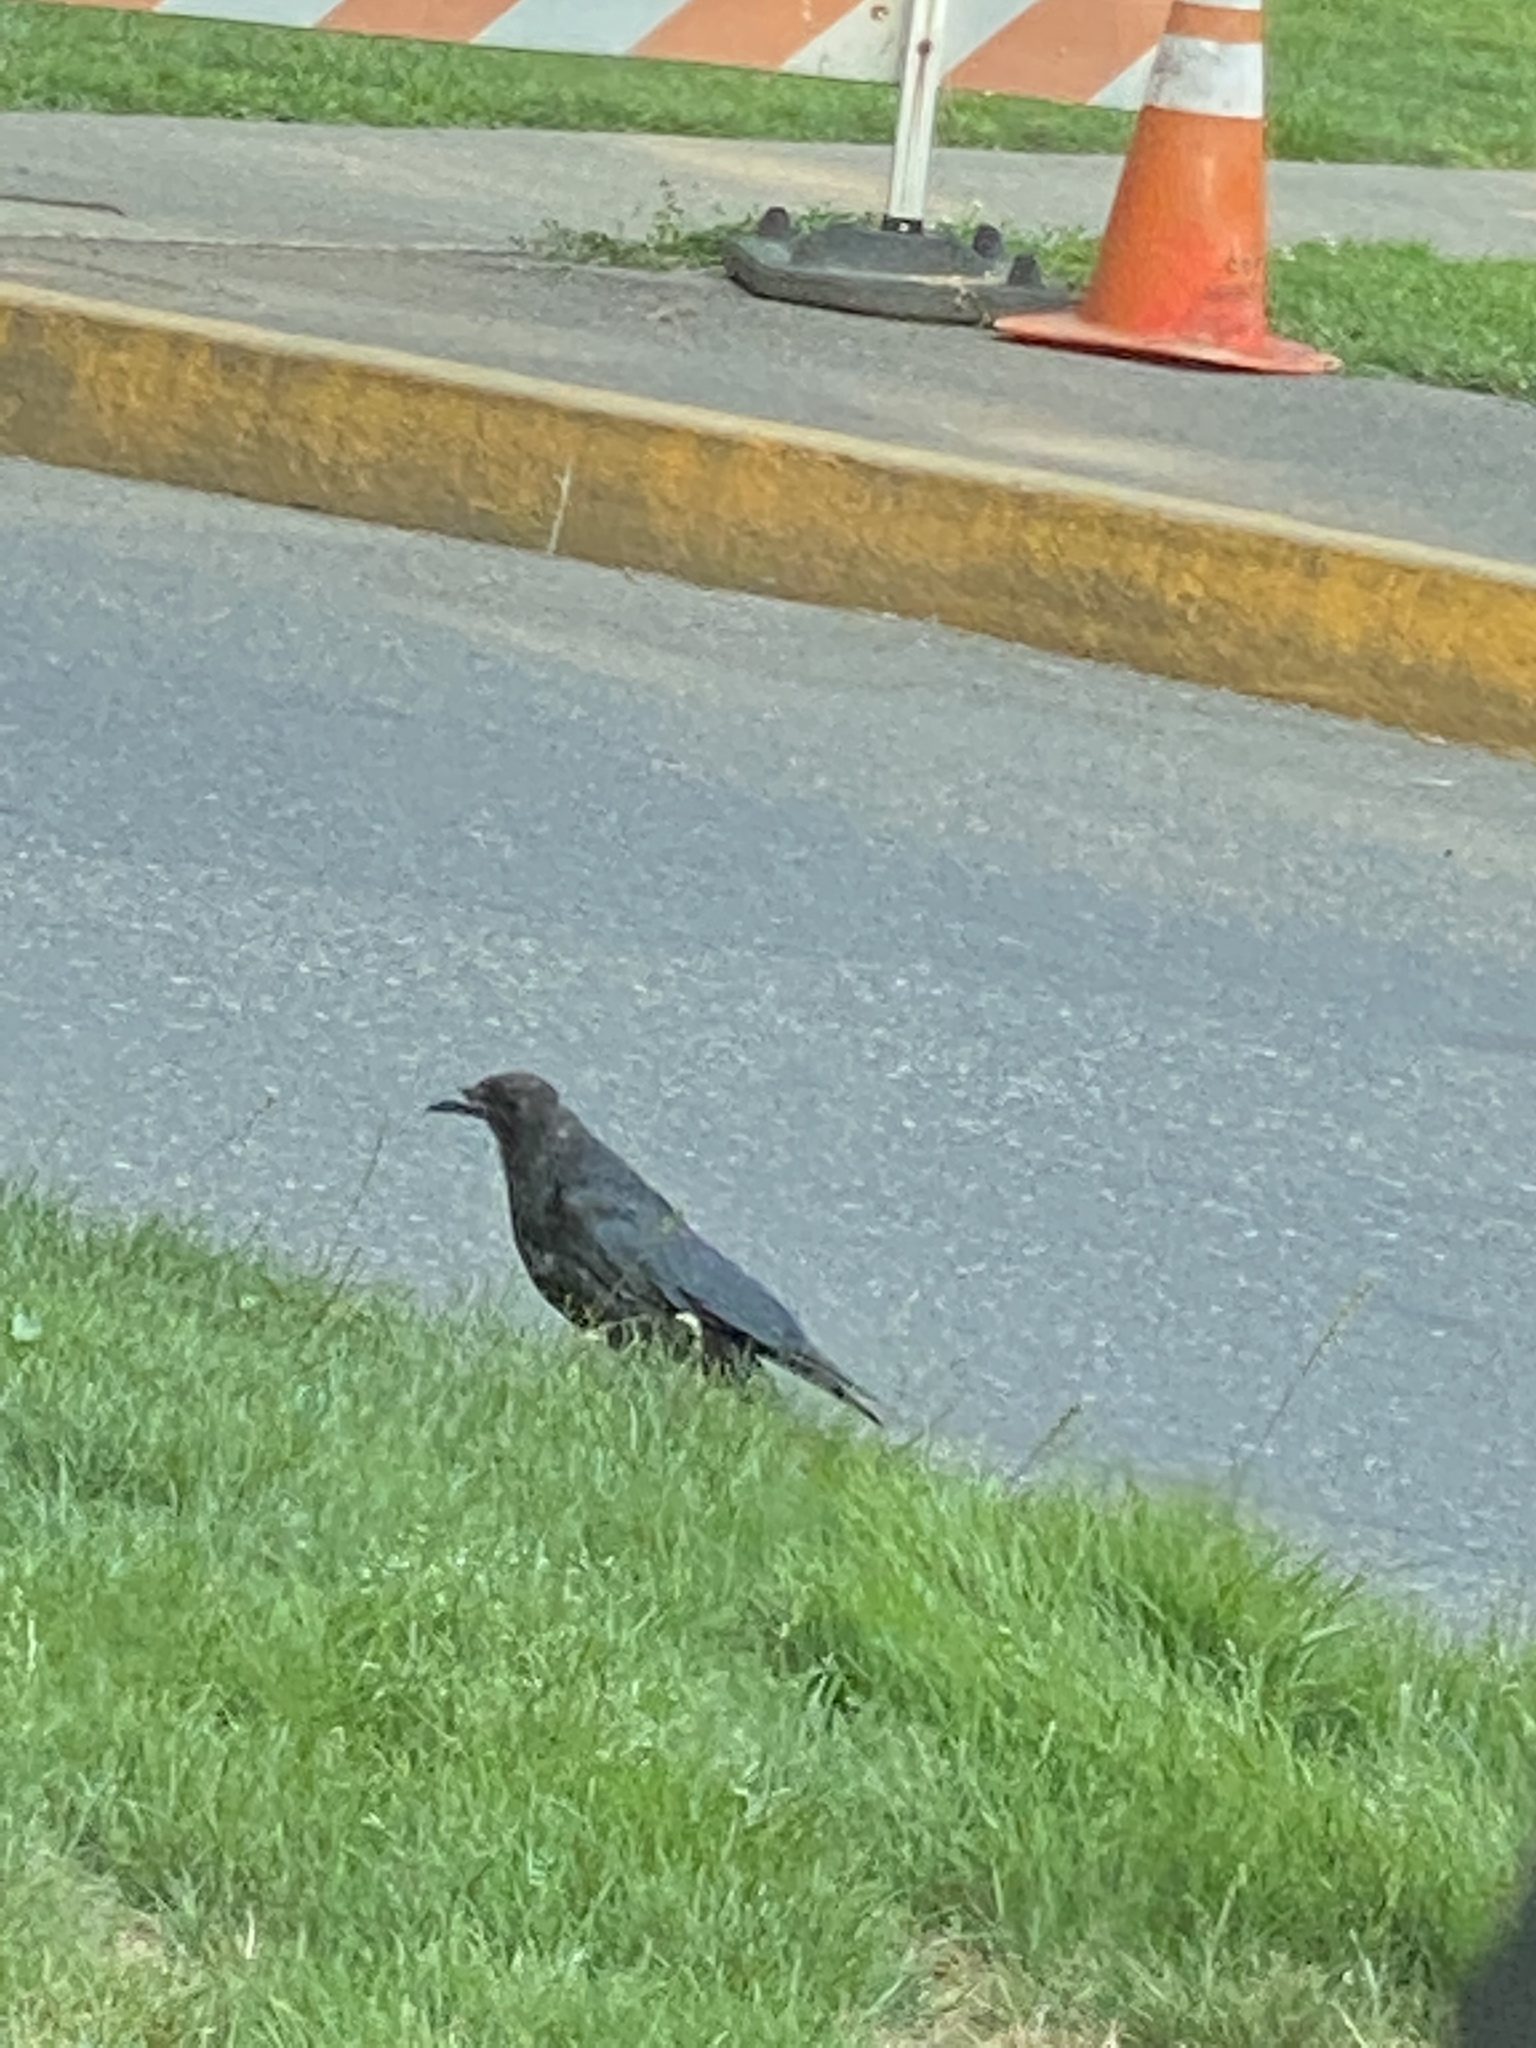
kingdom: Animalia
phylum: Chordata
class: Aves
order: Passeriformes
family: Corvidae
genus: Corvus
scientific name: Corvus brachyrhynchos
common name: American crow
